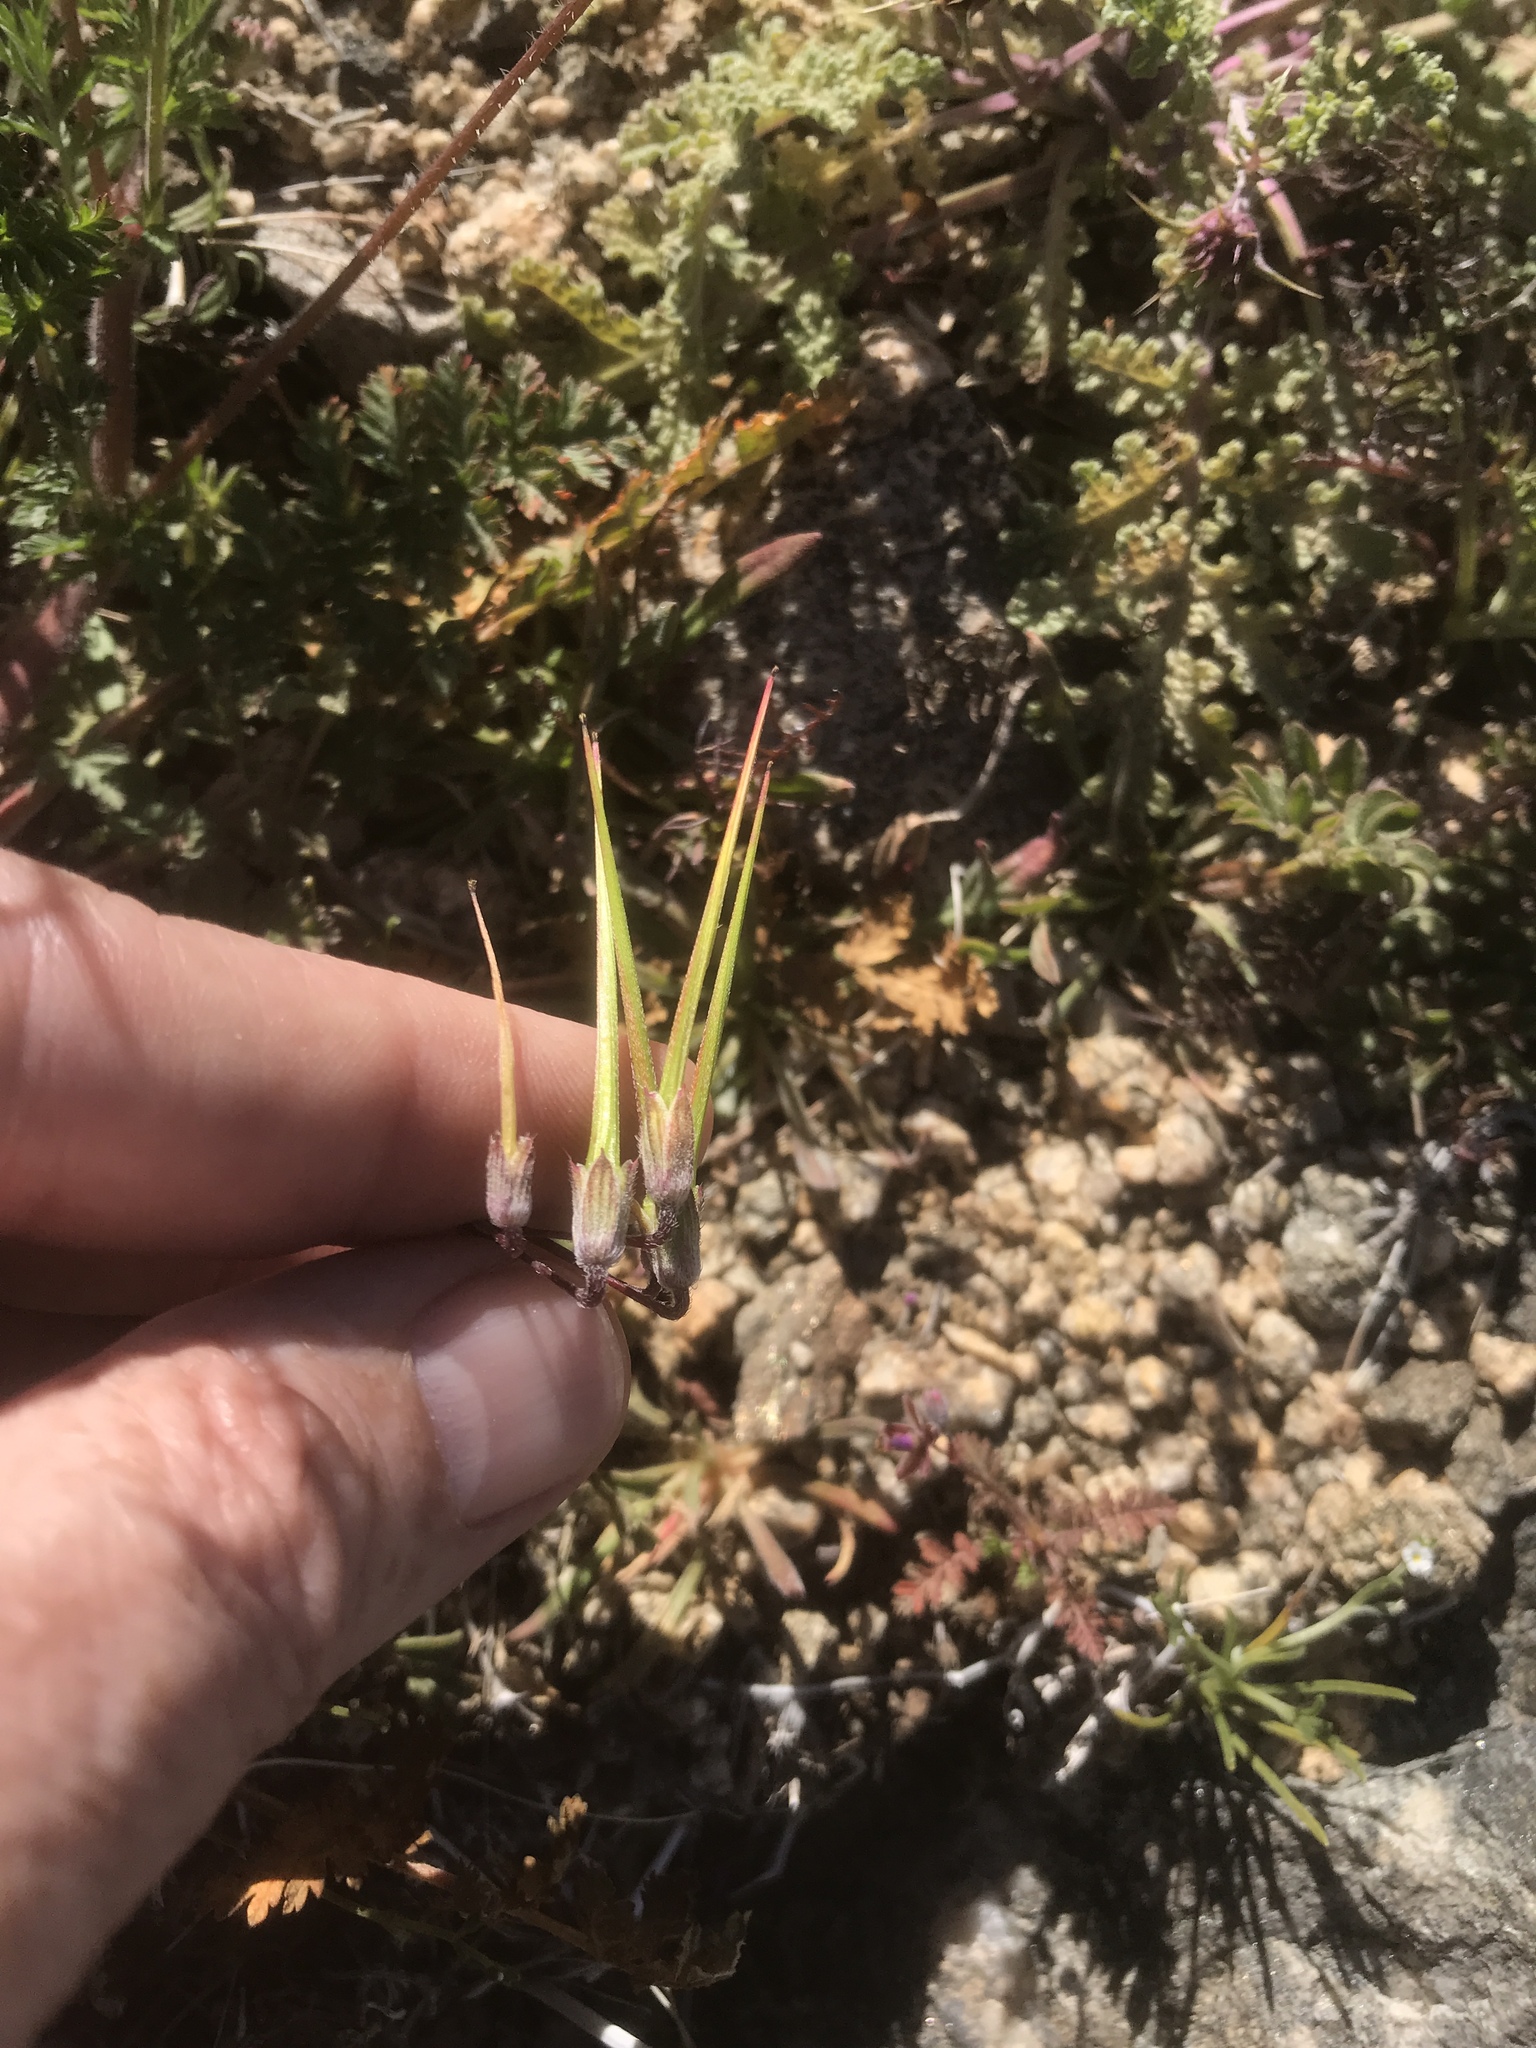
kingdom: Plantae
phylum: Tracheophyta
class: Magnoliopsida
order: Geraniales
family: Geraniaceae
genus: Erodium
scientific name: Erodium cicutarium
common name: Common stork's-bill
